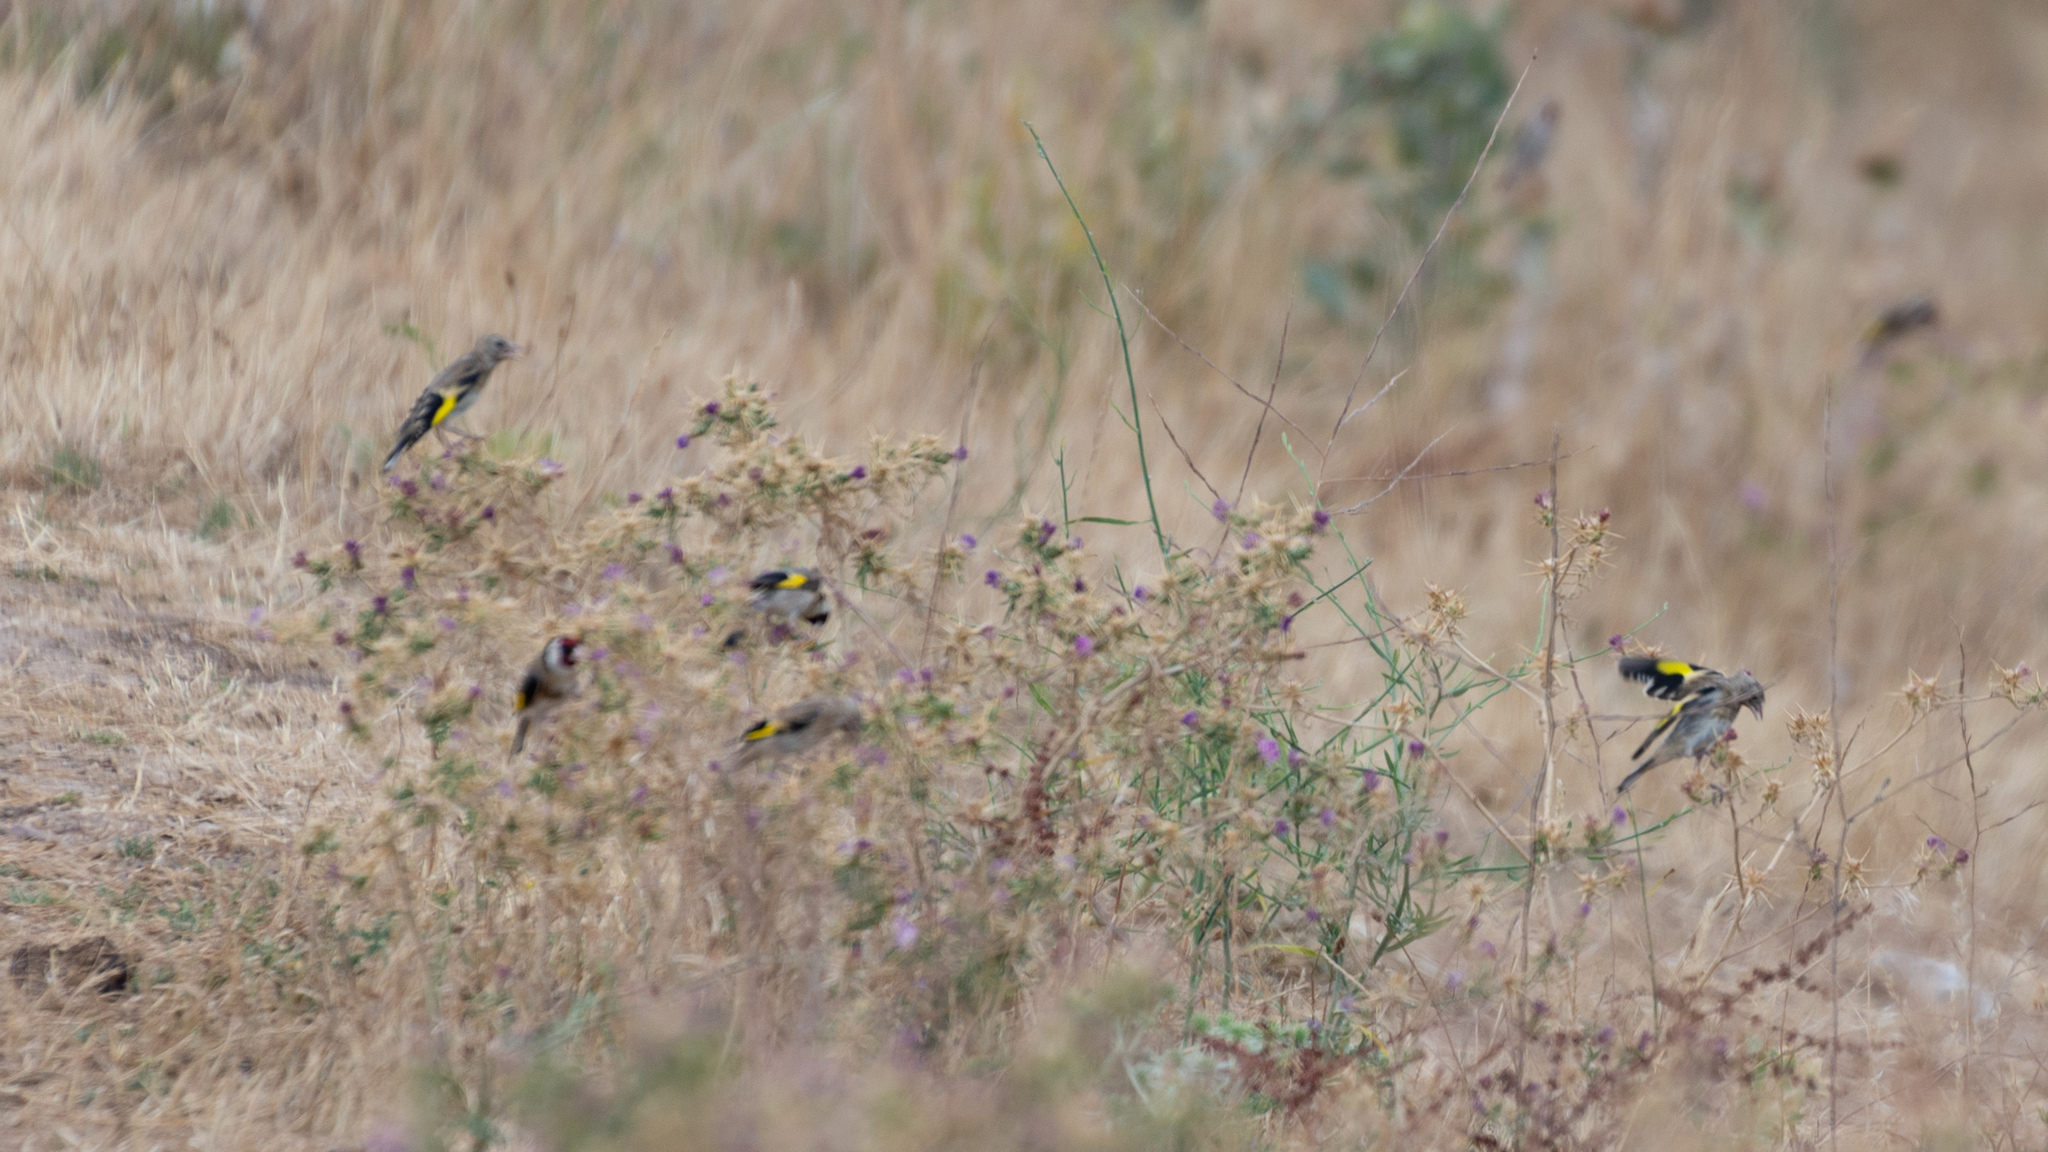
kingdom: Animalia
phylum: Chordata
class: Aves
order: Passeriformes
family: Fringillidae
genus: Carduelis
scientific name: Carduelis carduelis
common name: European goldfinch
